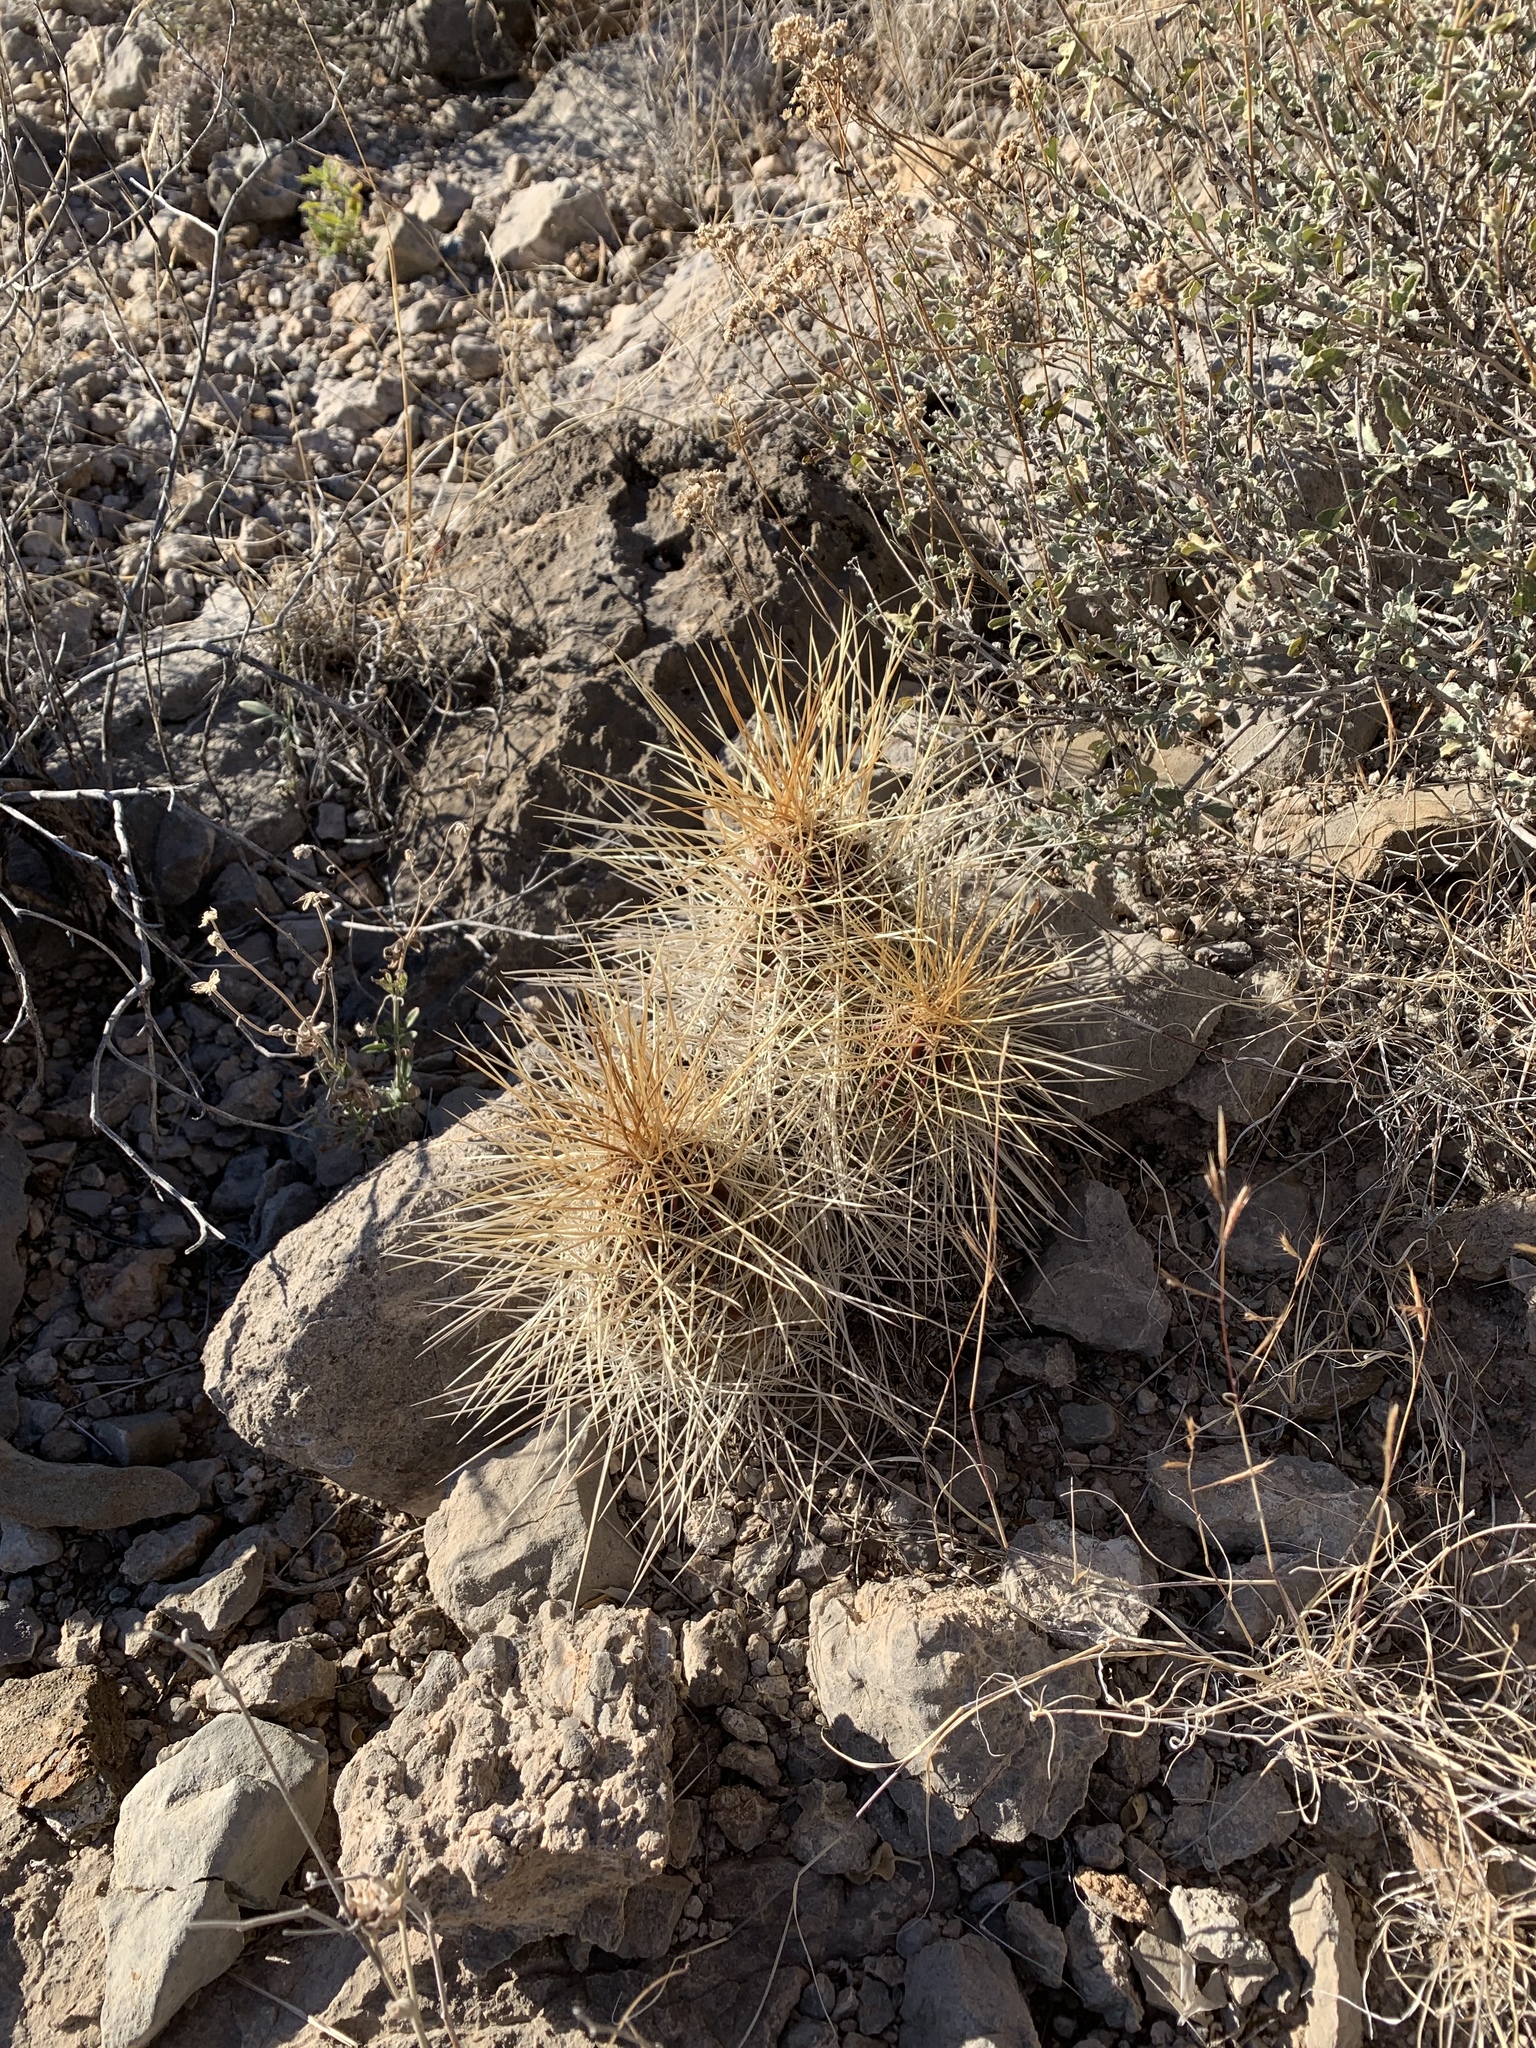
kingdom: Plantae
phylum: Tracheophyta
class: Magnoliopsida
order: Caryophyllales
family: Cactaceae
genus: Echinocereus
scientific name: Echinocereus stramineus
